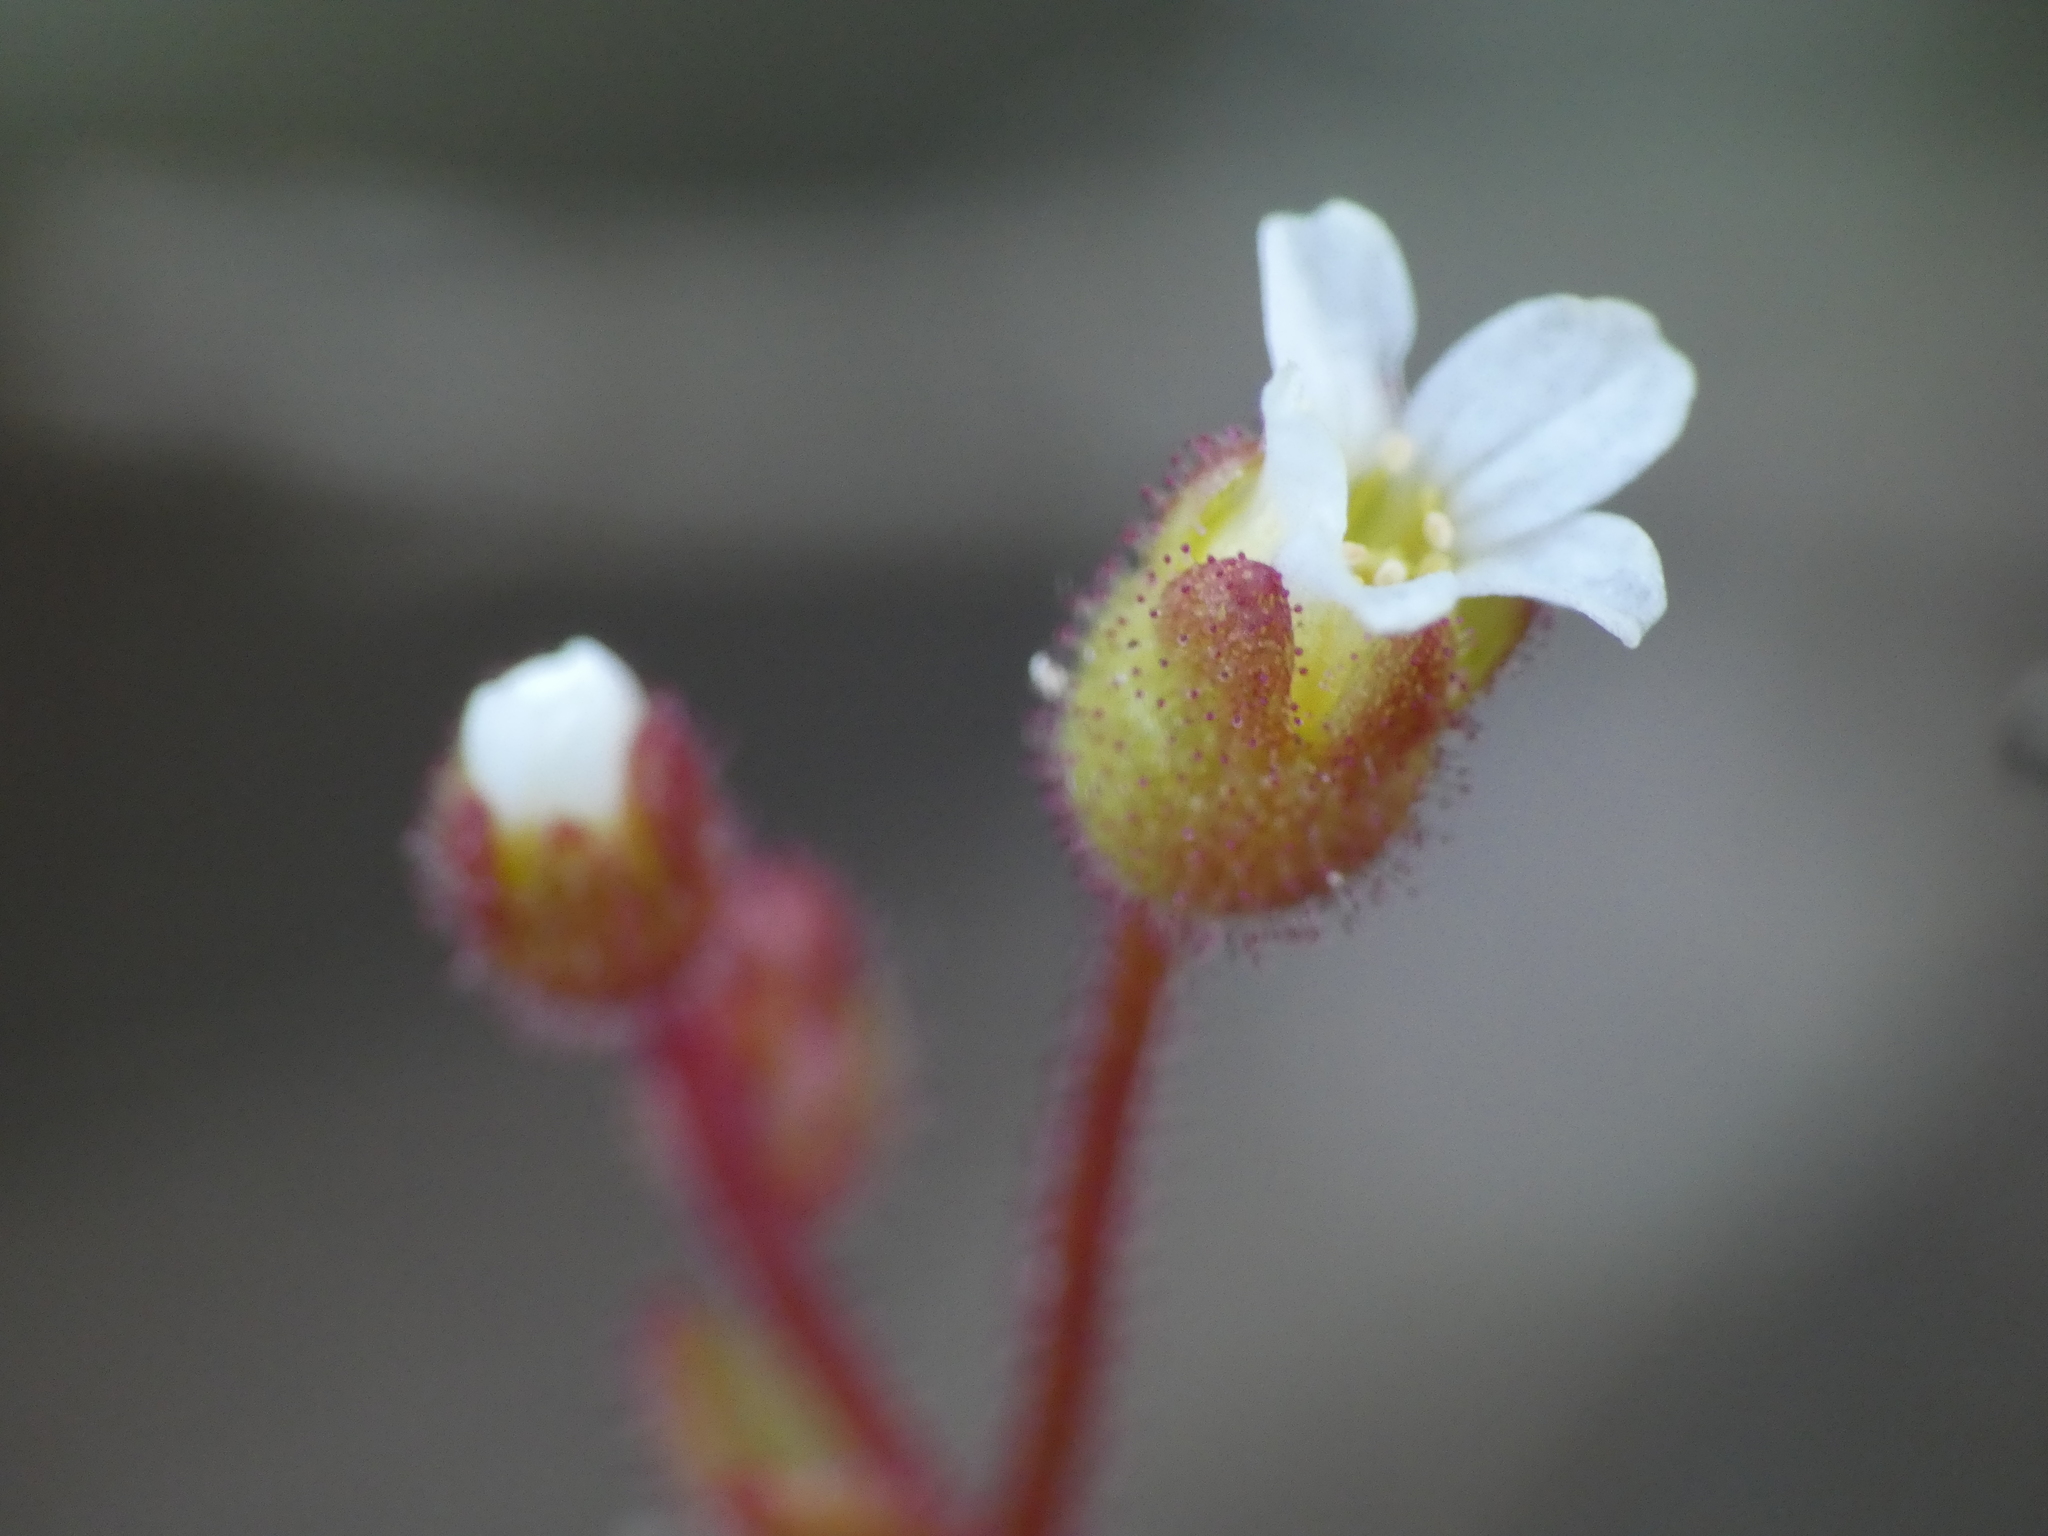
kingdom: Plantae
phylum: Tracheophyta
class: Magnoliopsida
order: Saxifragales
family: Saxifragaceae
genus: Saxifraga
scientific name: Saxifraga tridactylites
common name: Rue-leaved saxifrage
